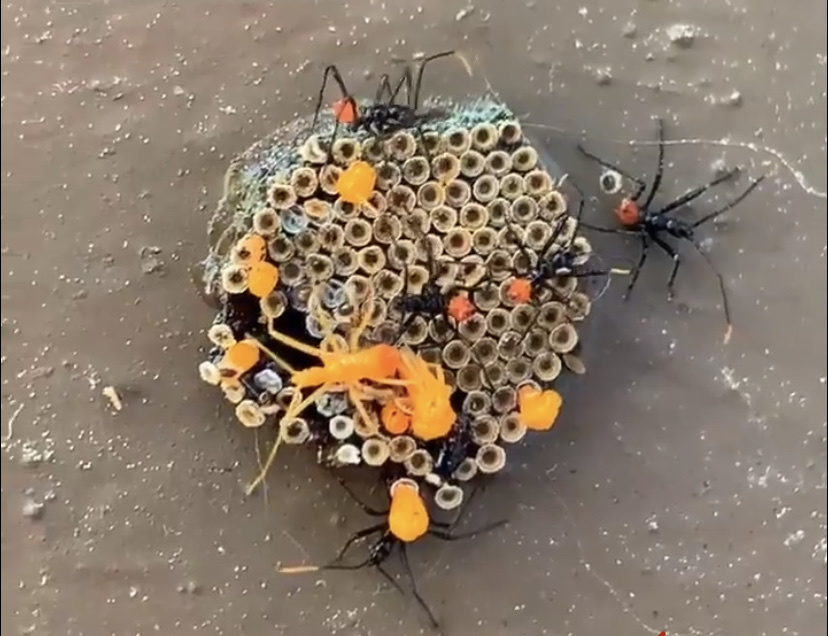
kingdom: Animalia
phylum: Arthropoda
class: Insecta
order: Hemiptera
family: Reduviidae
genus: Arilus
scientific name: Arilus cristatus
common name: North american wheel bug
